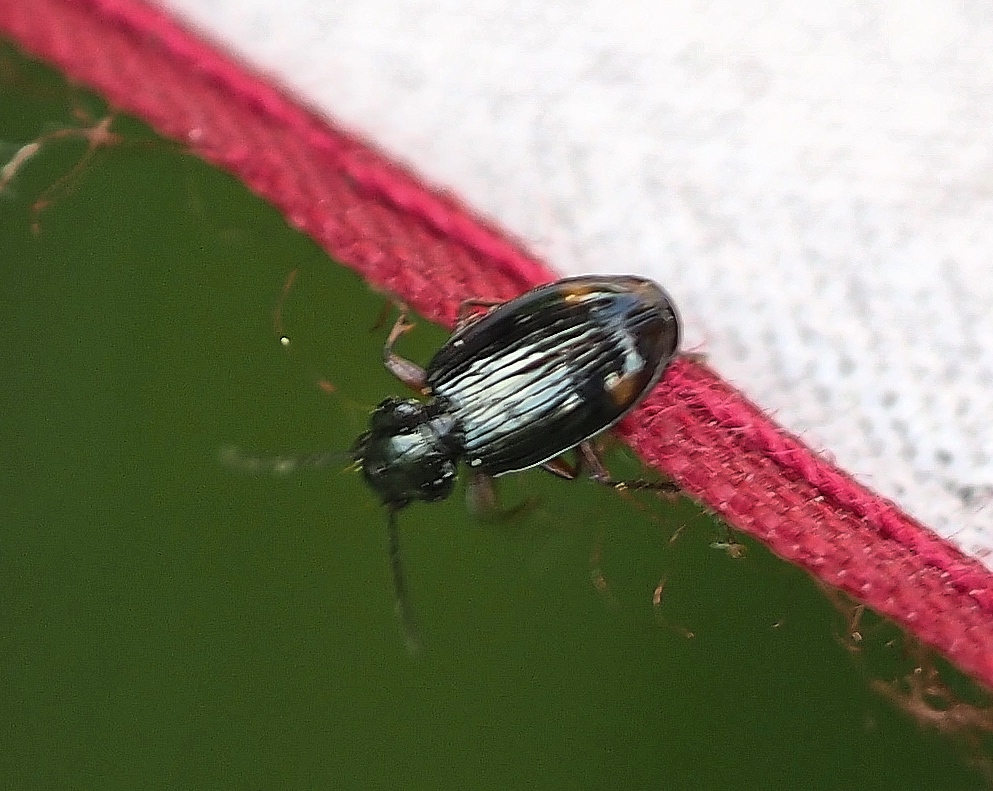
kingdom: Animalia
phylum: Arthropoda
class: Insecta
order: Coleoptera
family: Carabidae
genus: Bembidion
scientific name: Bembidion biguttatum
